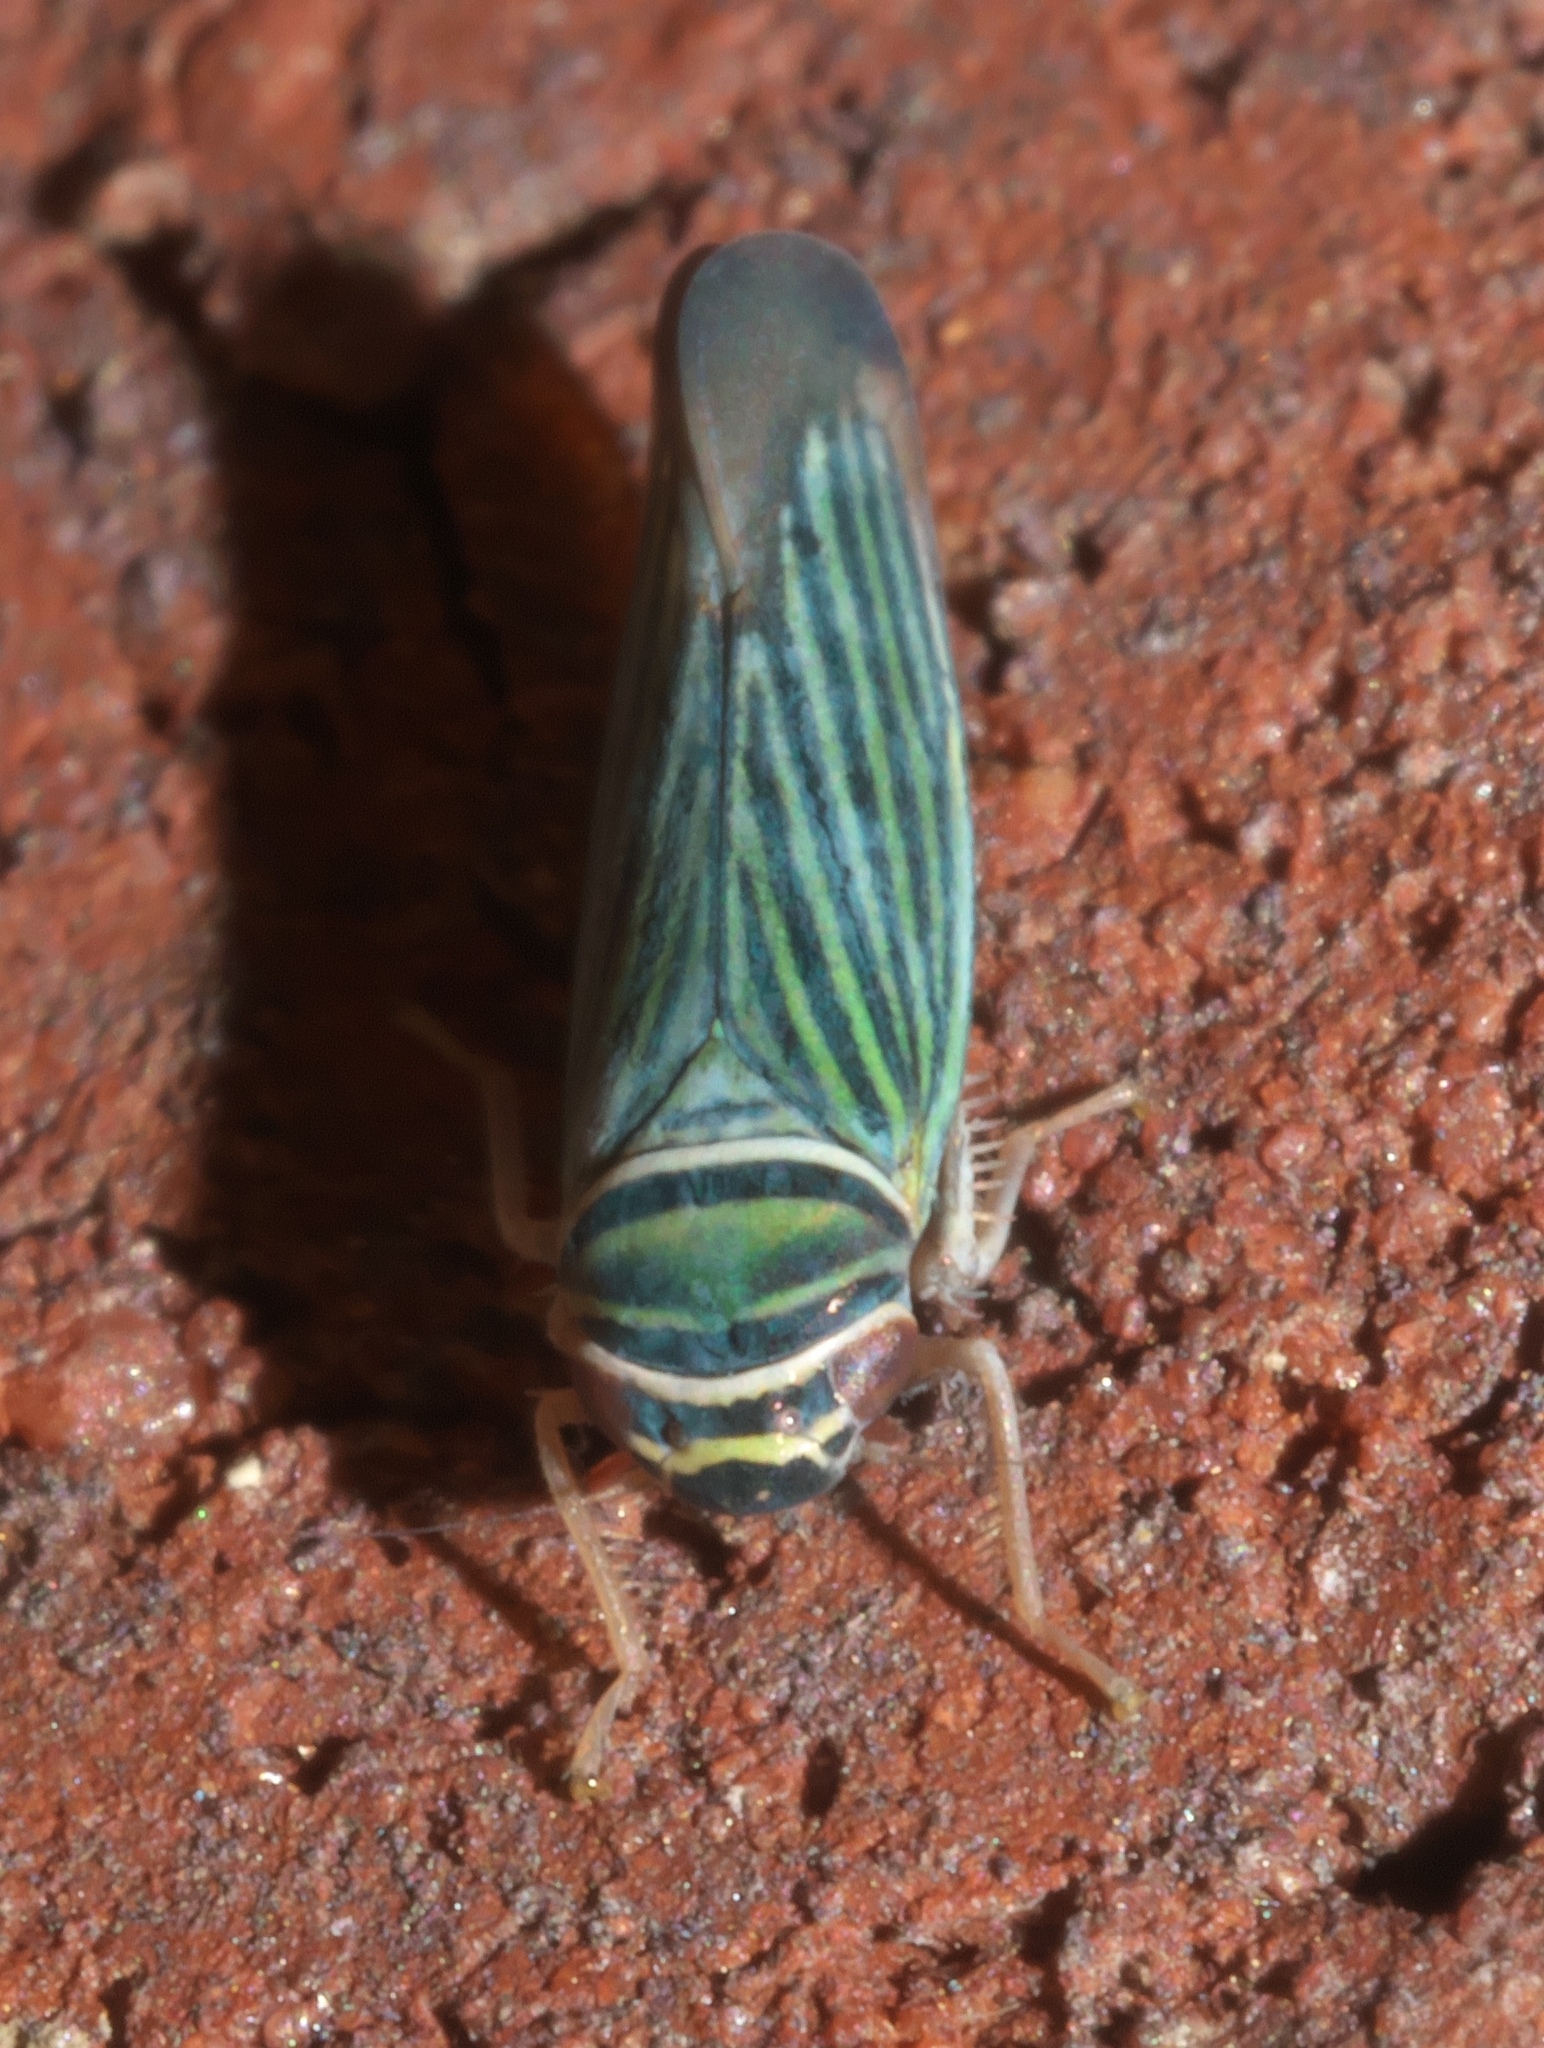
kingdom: Animalia
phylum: Arthropoda
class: Insecta
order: Hemiptera
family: Cicadellidae
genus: Tylozygus
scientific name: Tylozygus bifidus
